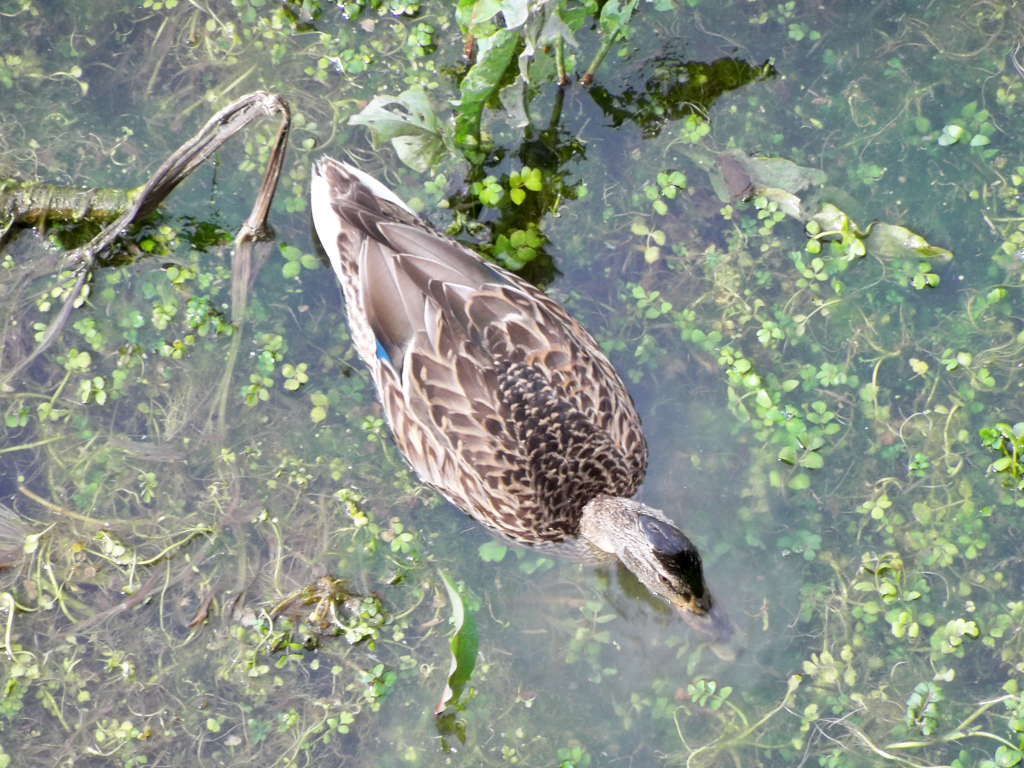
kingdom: Animalia
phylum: Chordata
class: Aves
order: Anseriformes
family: Anatidae
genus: Anas
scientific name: Anas platyrhynchos
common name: Mallard
